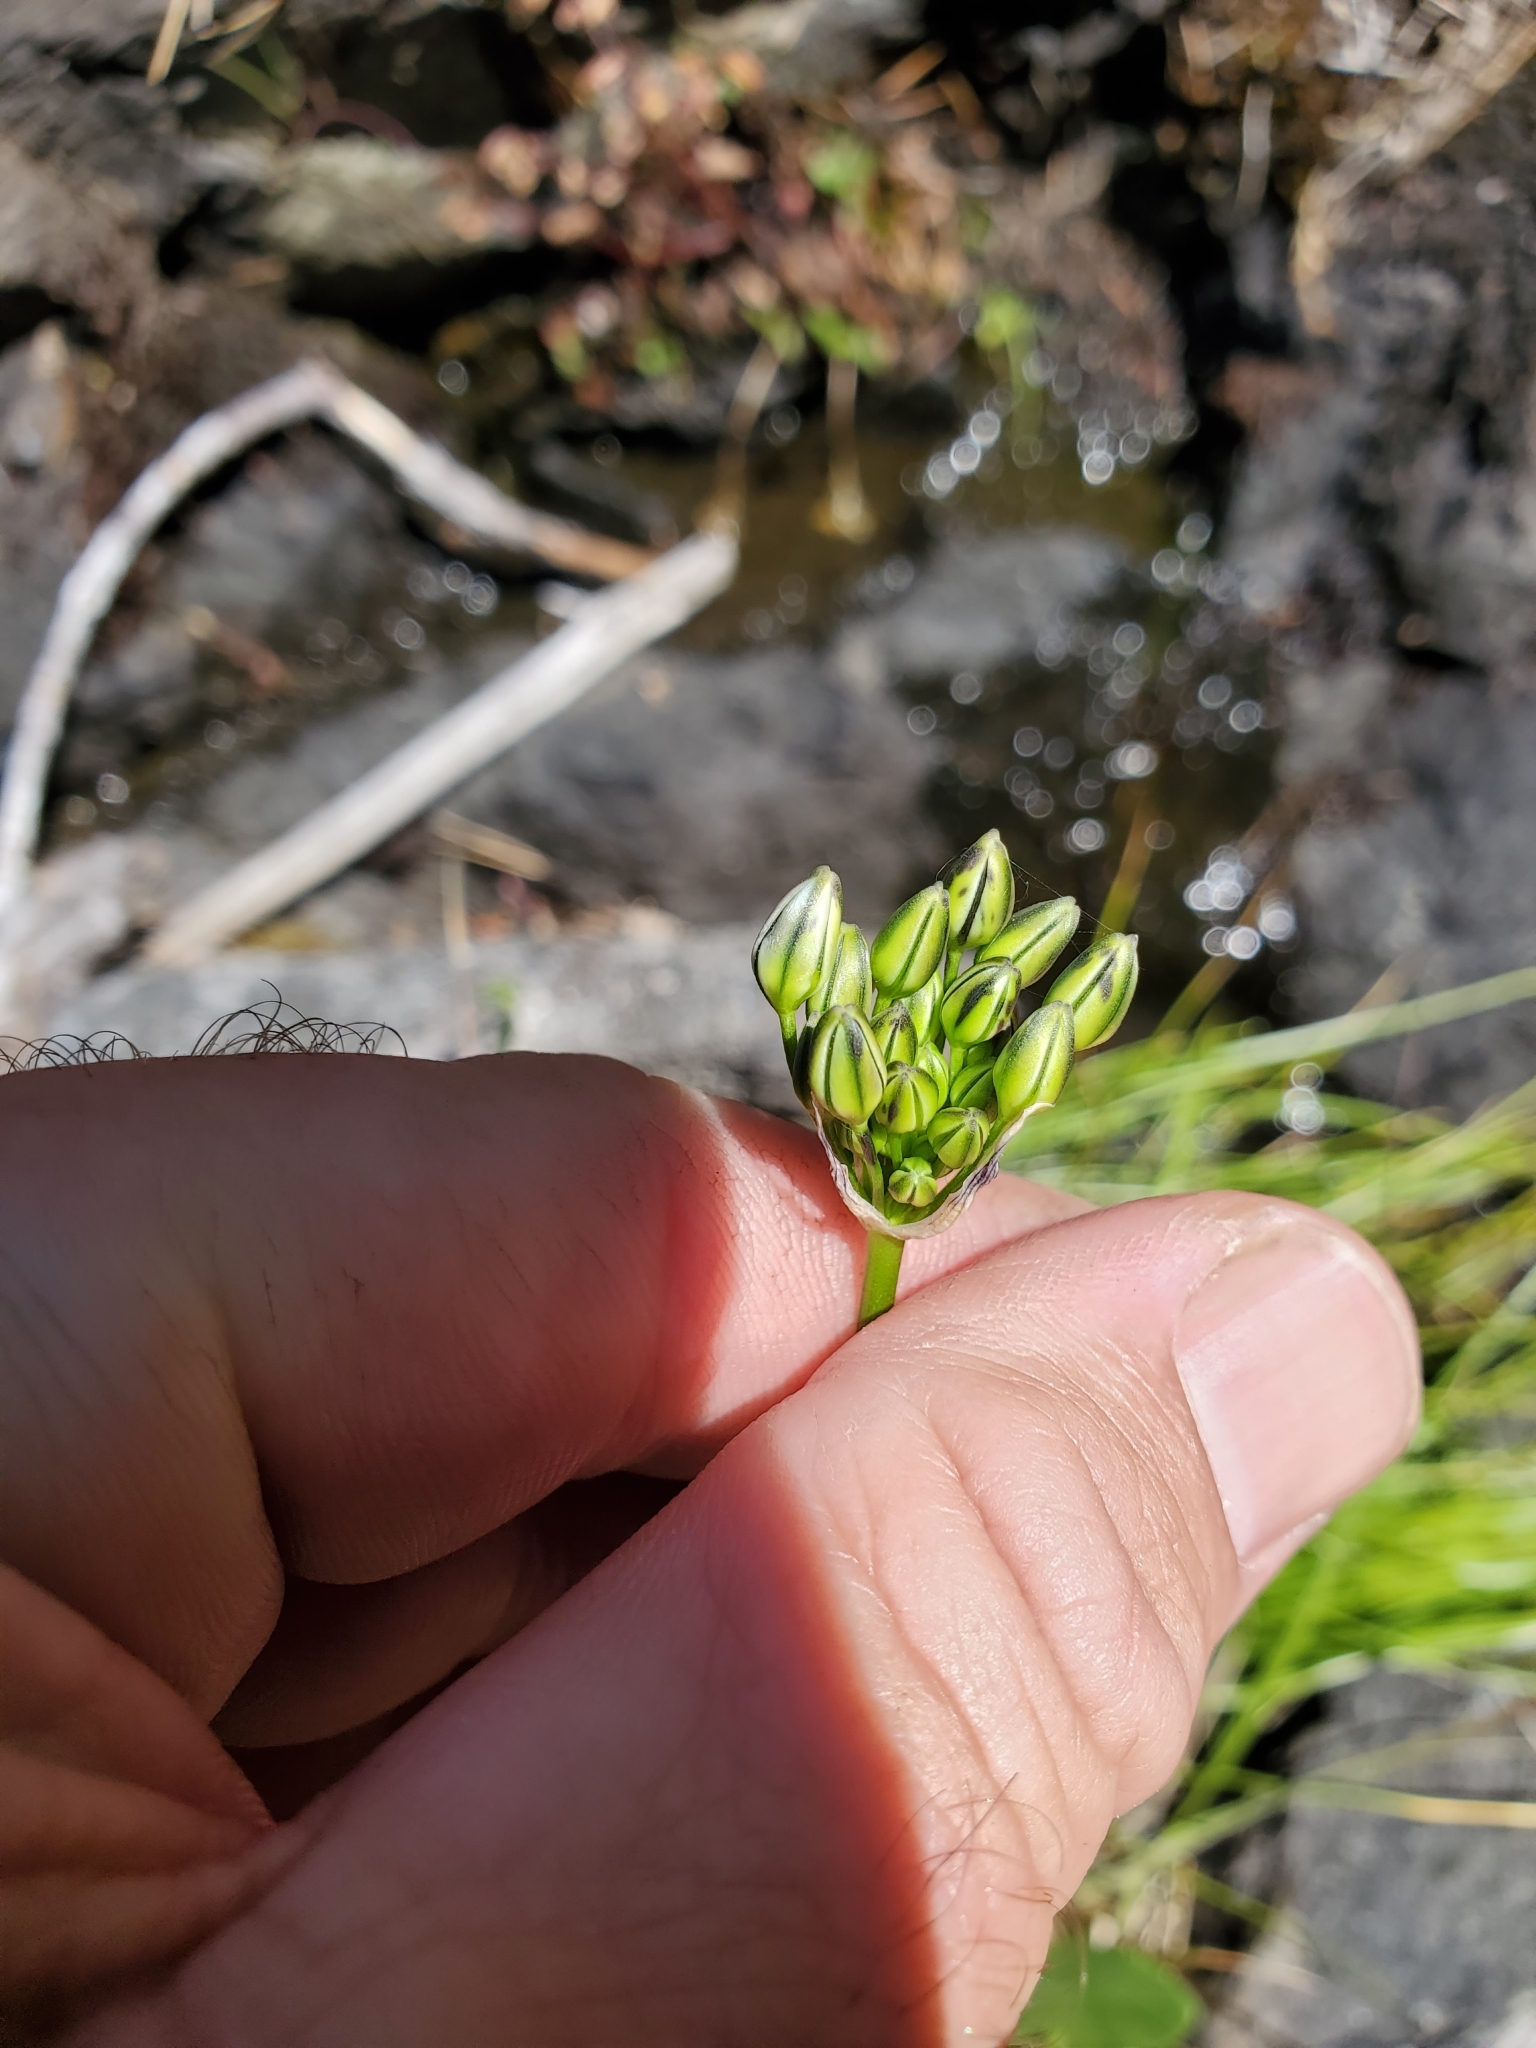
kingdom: Plantae
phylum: Tracheophyta
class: Liliopsida
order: Asparagales
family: Asparagaceae
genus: Triteleia
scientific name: Triteleia hyacinthina
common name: White brodiaea
